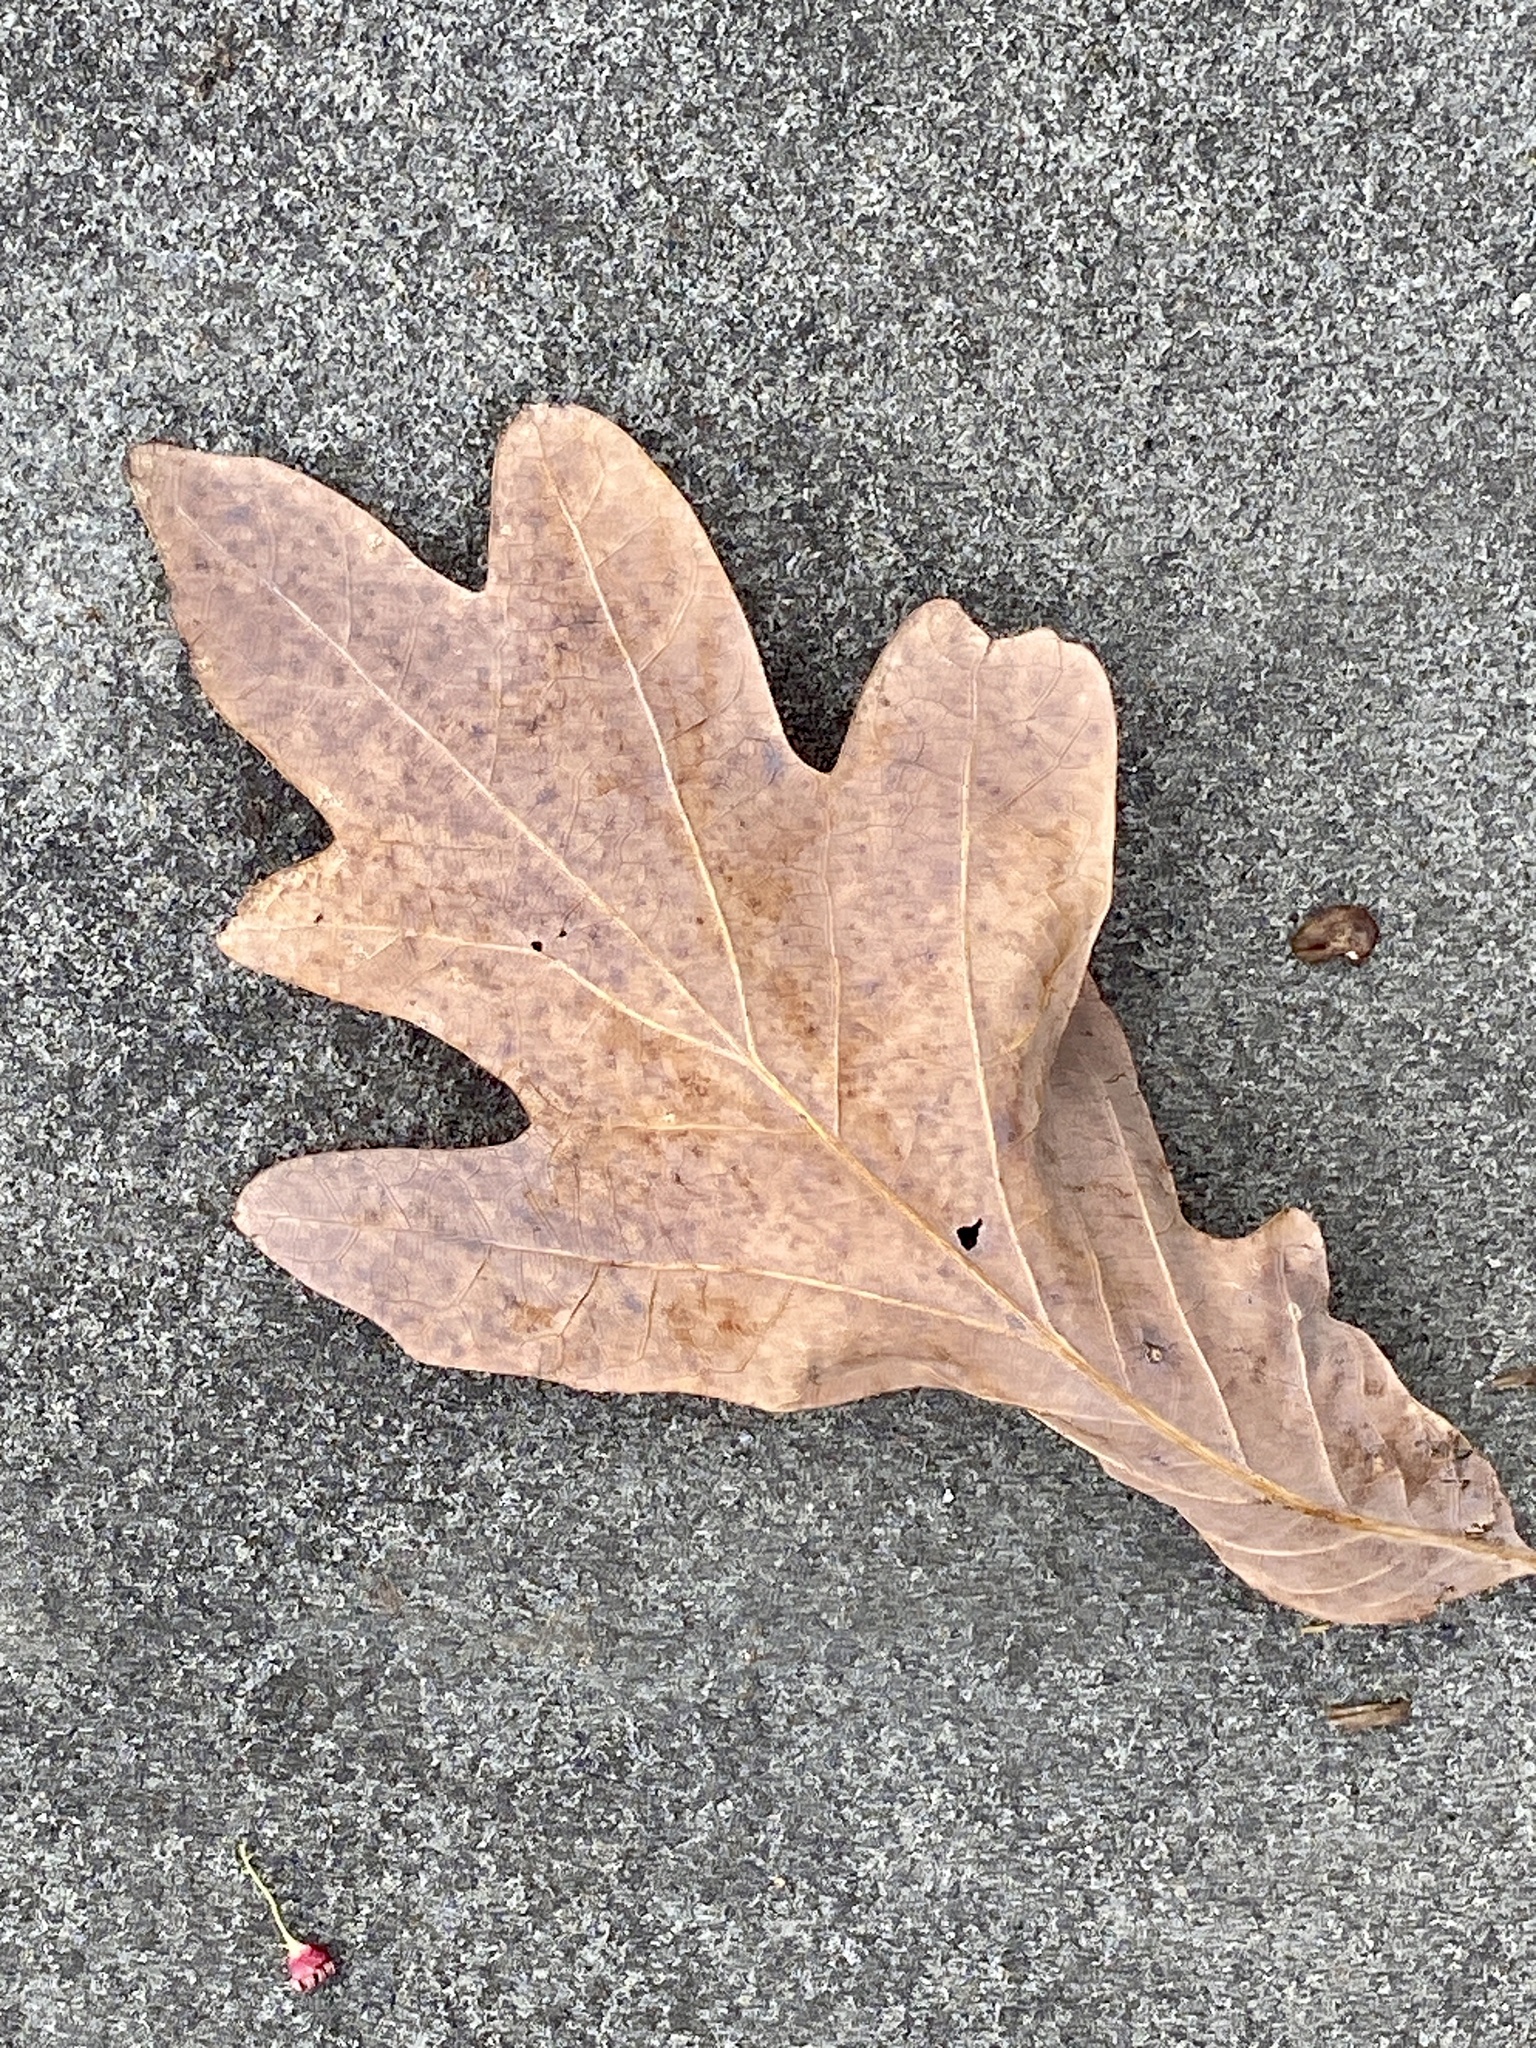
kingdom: Plantae
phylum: Tracheophyta
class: Magnoliopsida
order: Fagales
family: Fagaceae
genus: Quercus
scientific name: Quercus alba
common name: White oak
